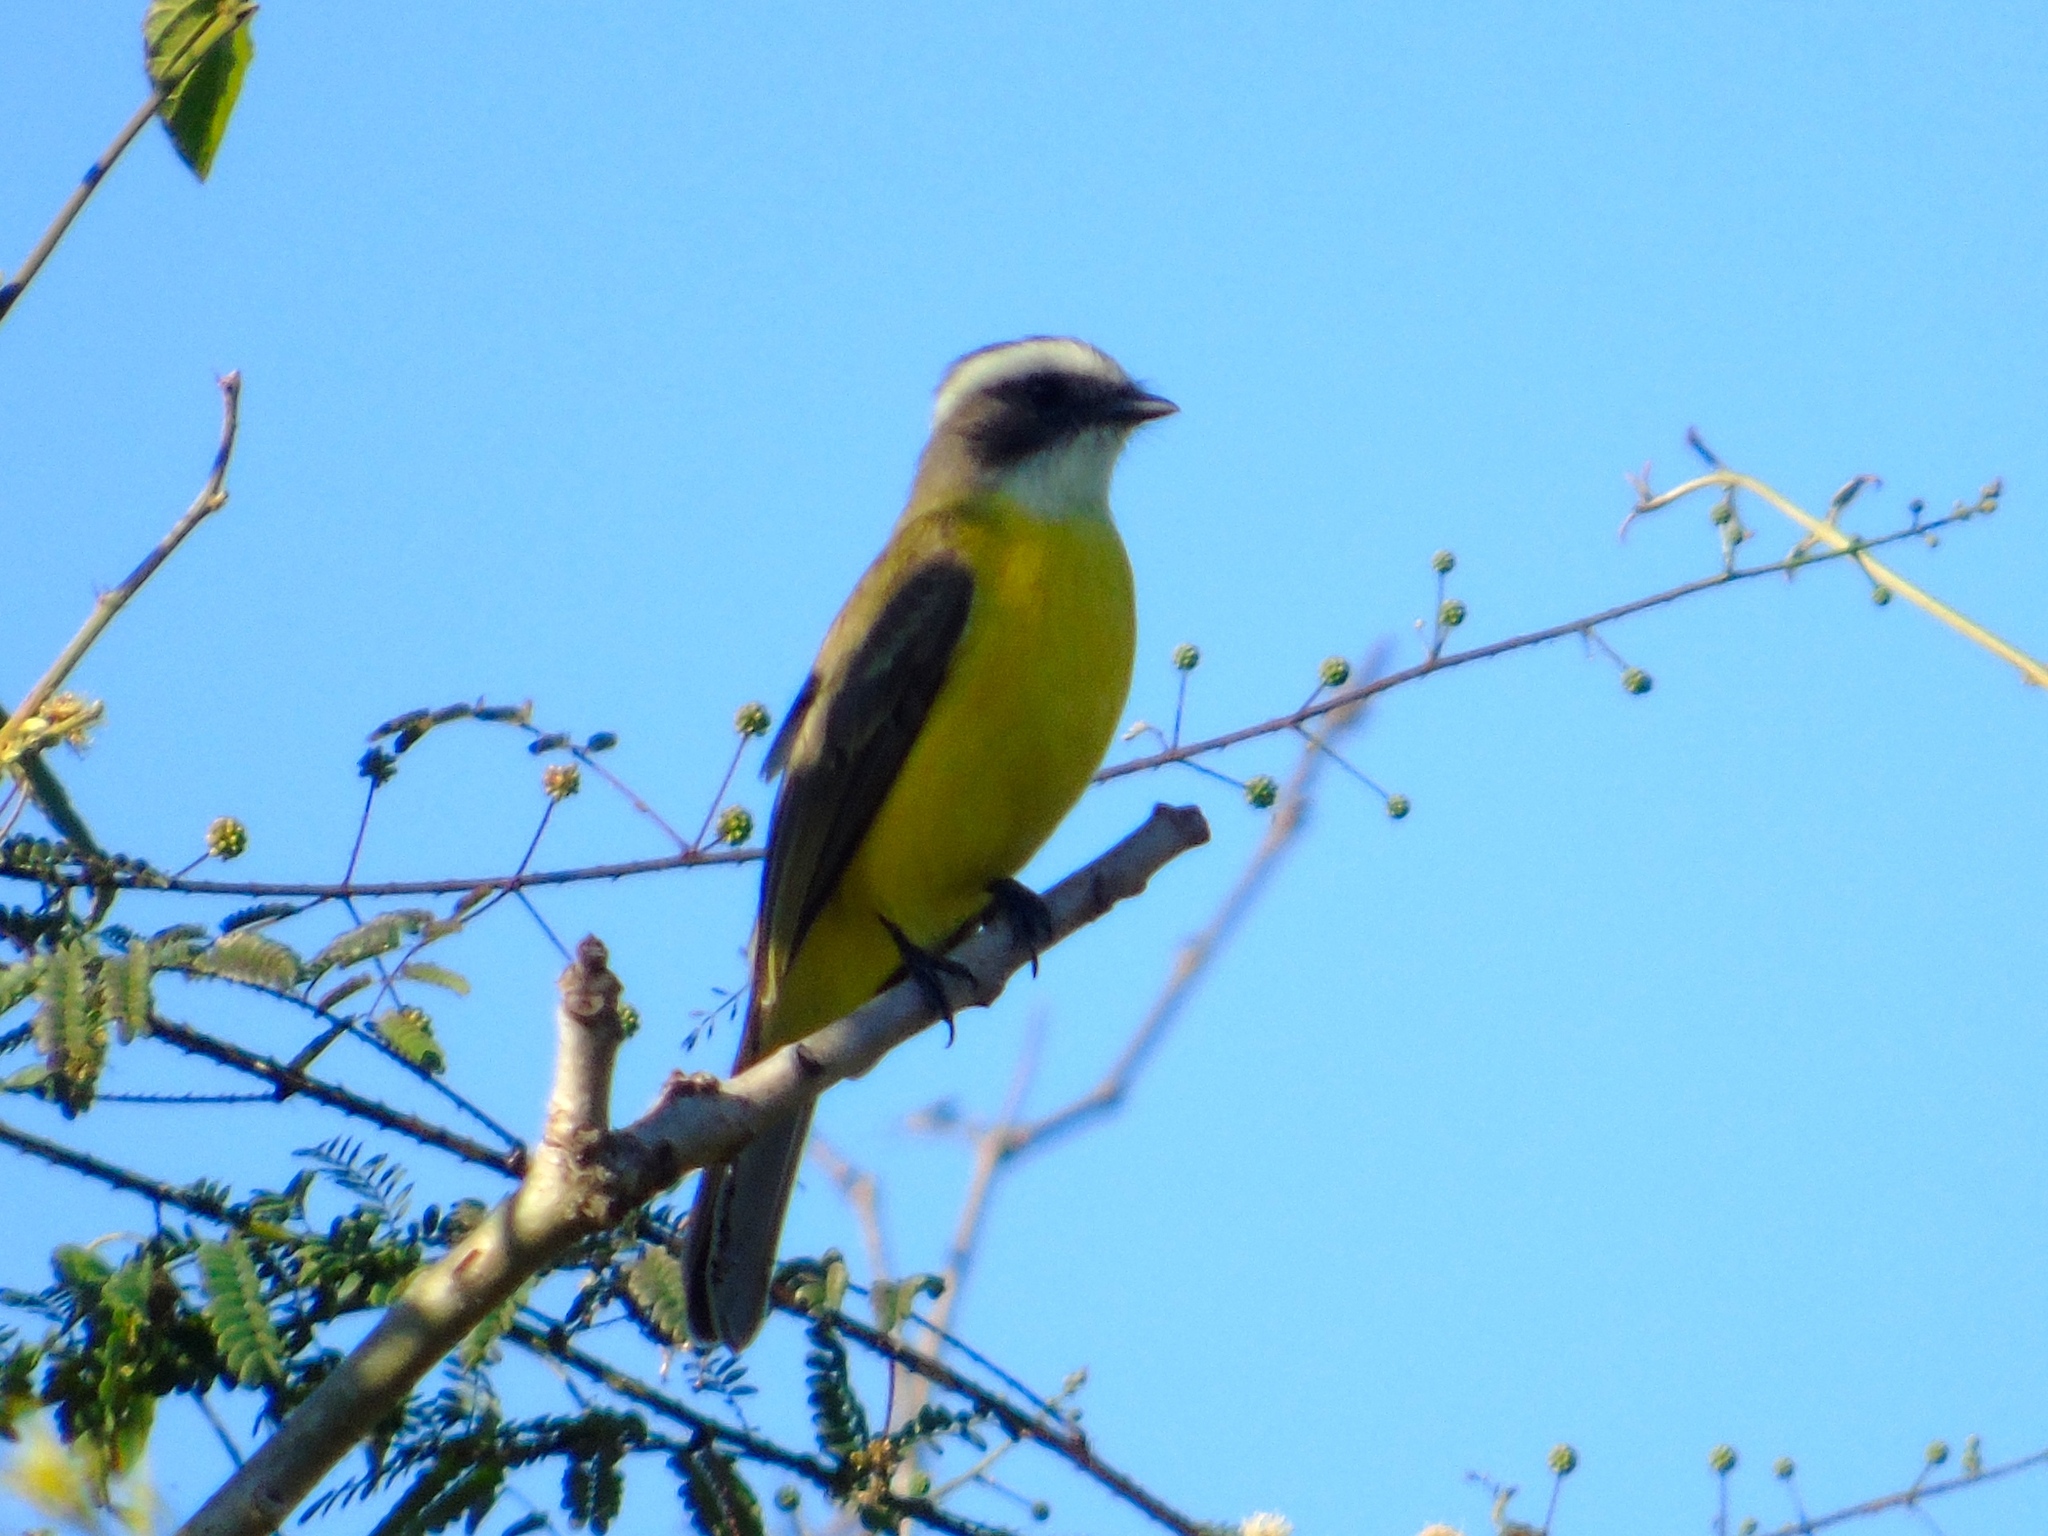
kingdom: Animalia
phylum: Chordata
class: Aves
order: Passeriformes
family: Tyrannidae
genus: Myiozetetes
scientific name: Myiozetetes similis
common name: Social flycatcher
